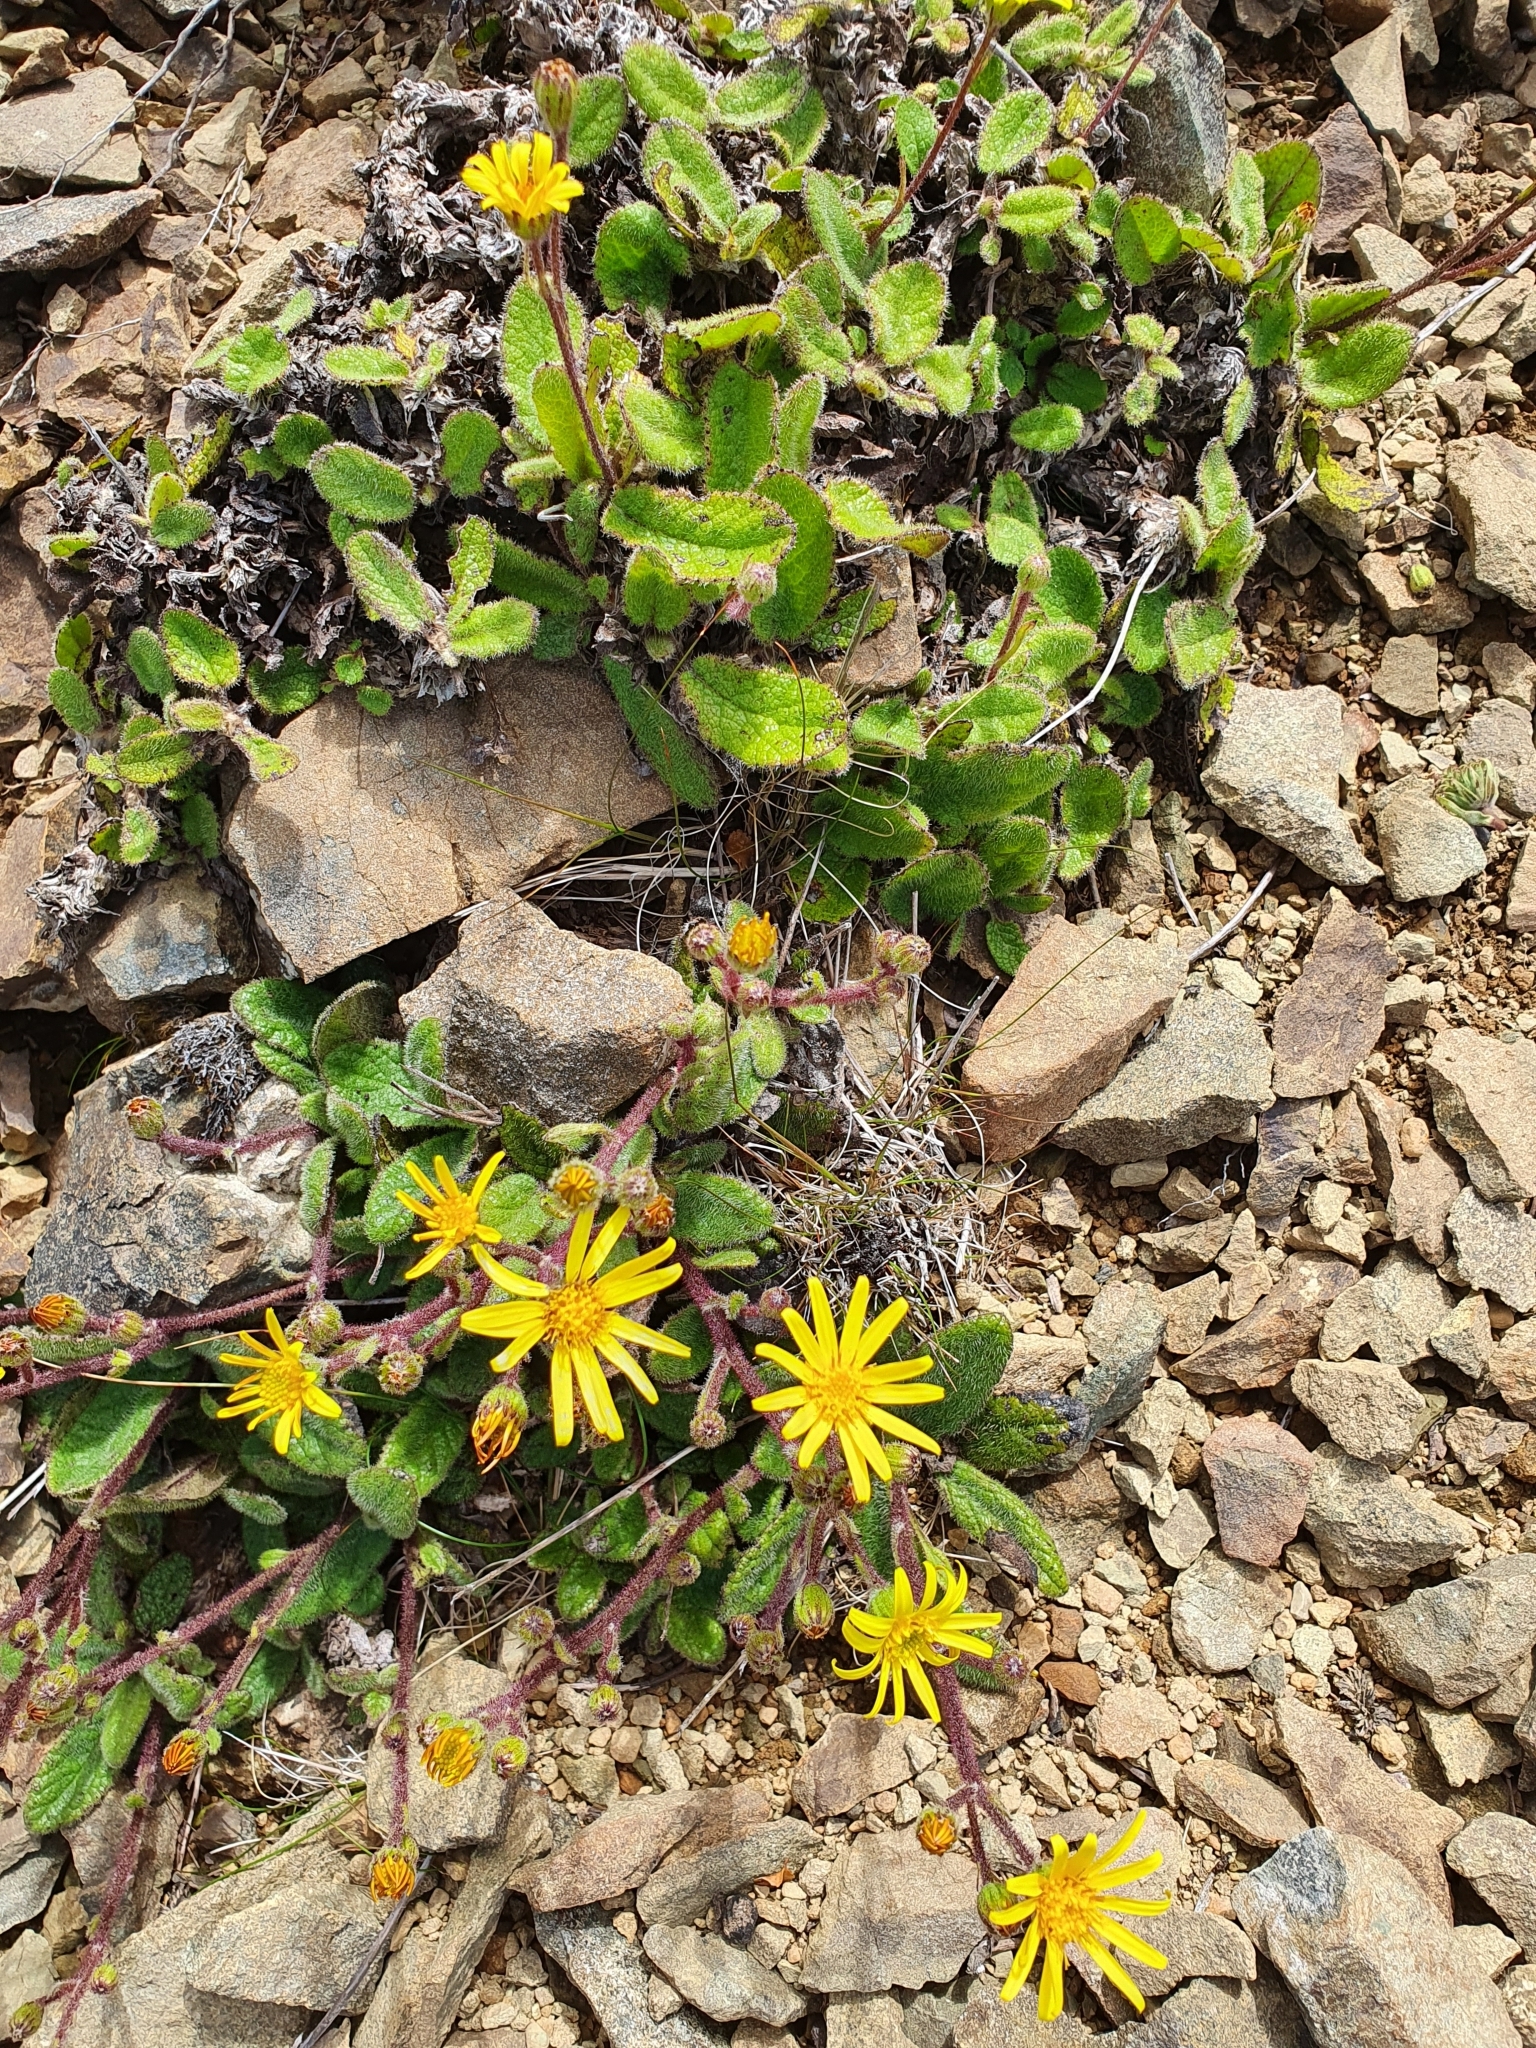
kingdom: Plantae
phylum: Tracheophyta
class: Magnoliopsida
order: Asterales
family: Asteraceae
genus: Brachyglottis
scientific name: Brachyglottis bellidioides
